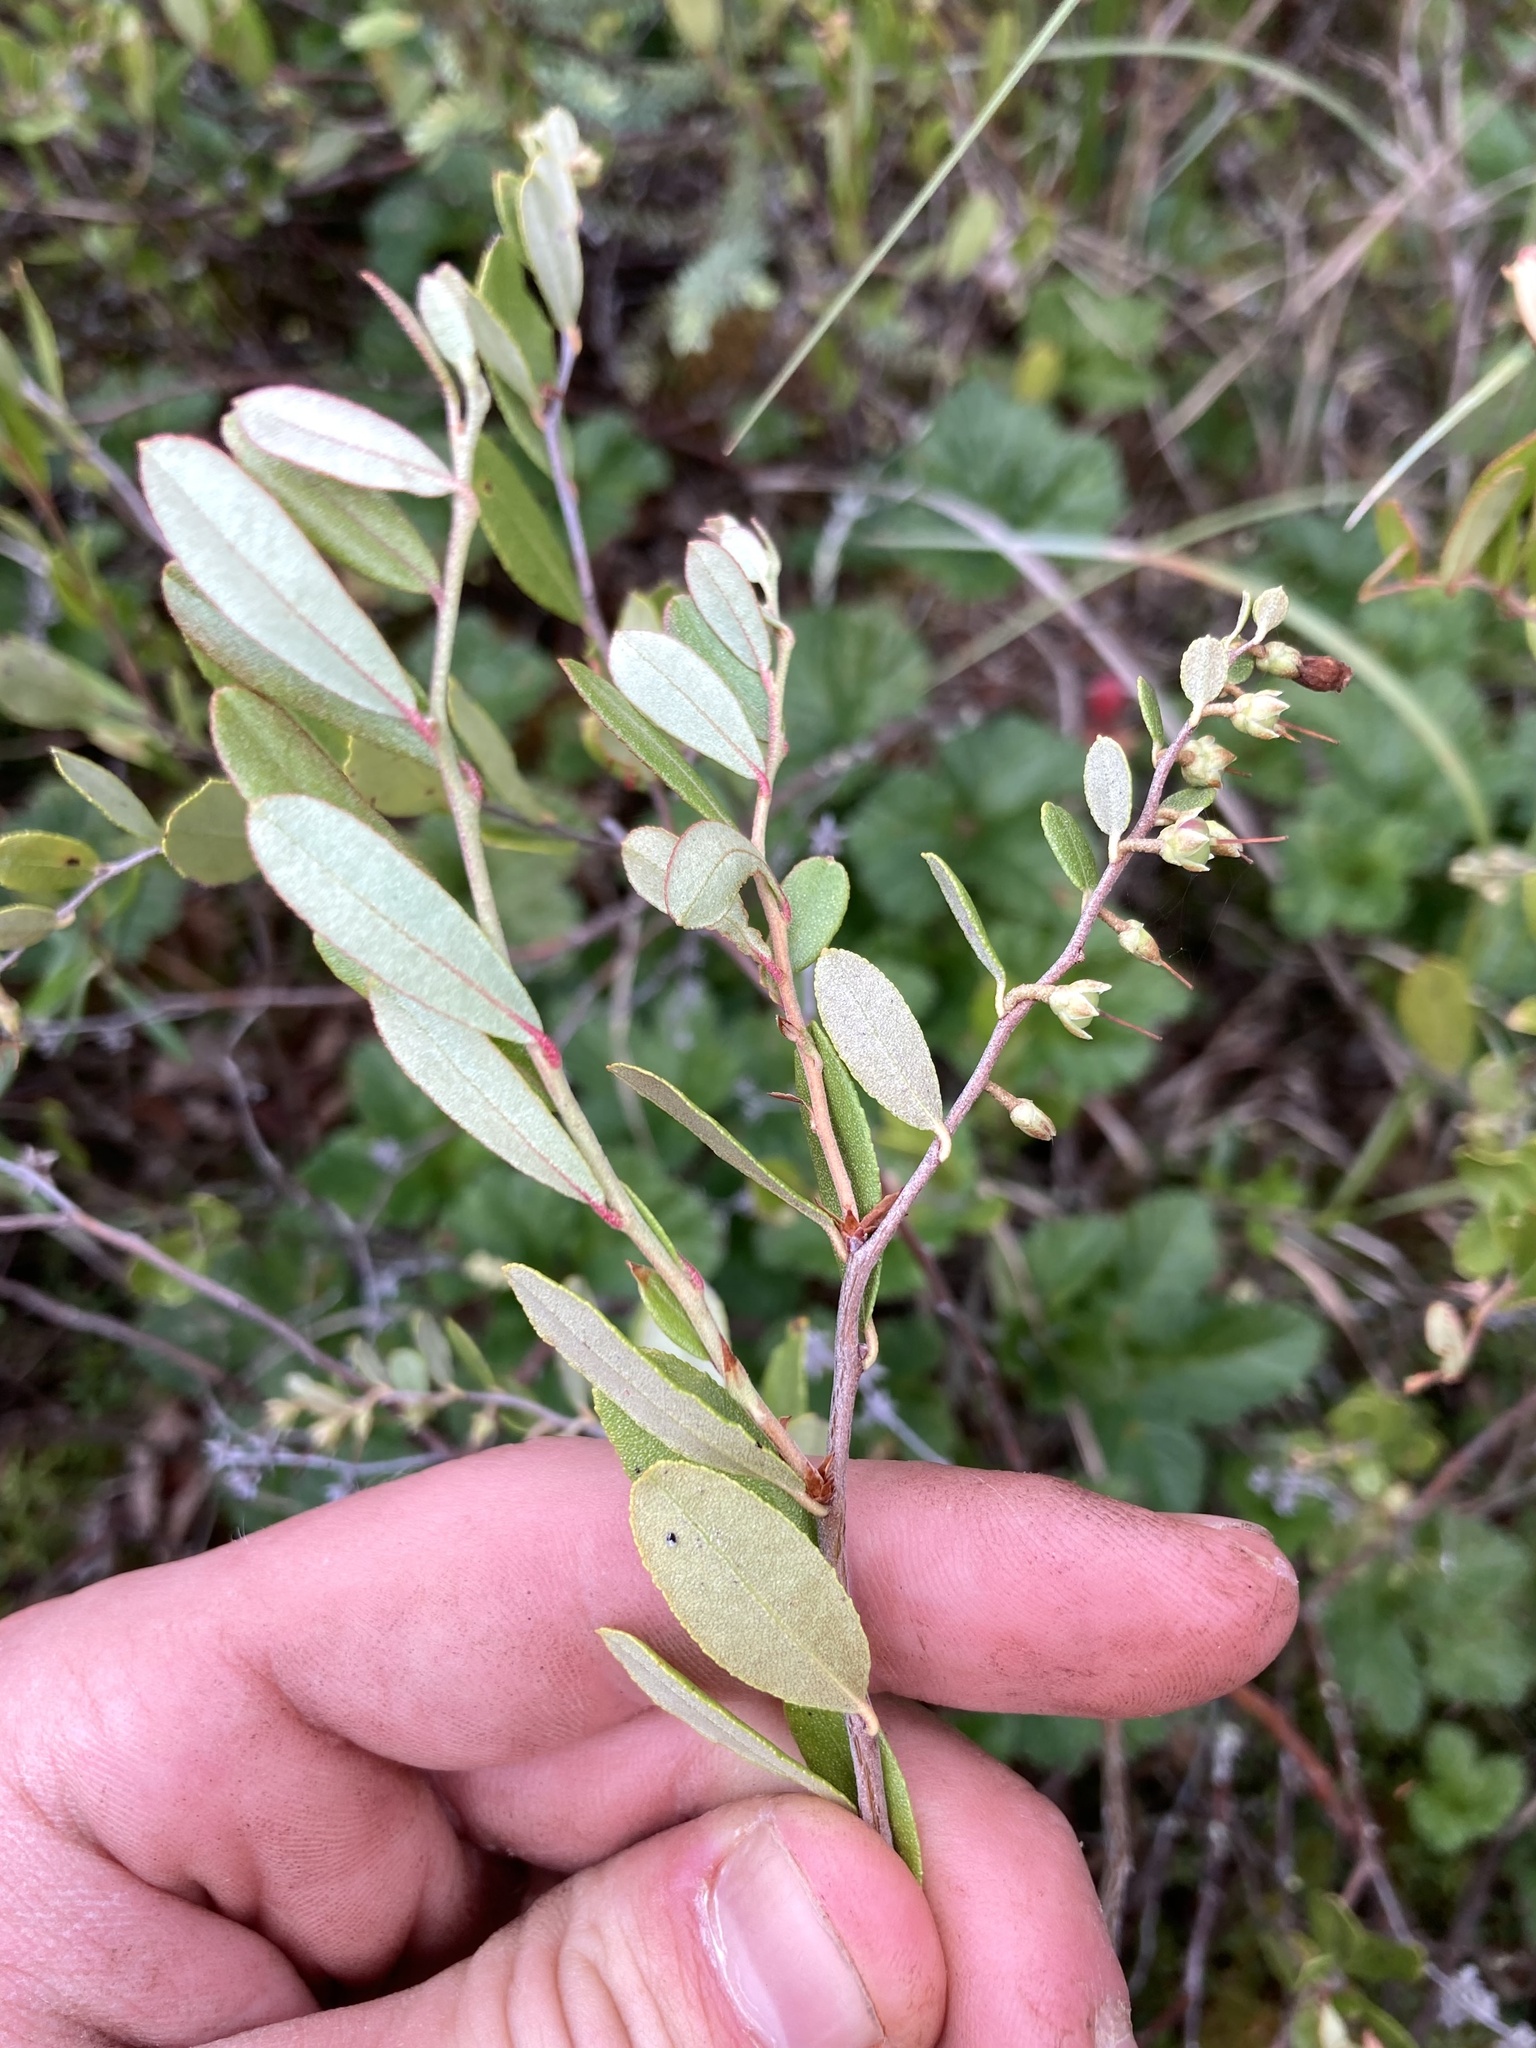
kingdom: Plantae
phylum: Tracheophyta
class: Magnoliopsida
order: Ericales
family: Ericaceae
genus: Chamaedaphne
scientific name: Chamaedaphne calyculata
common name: Leatherleaf
